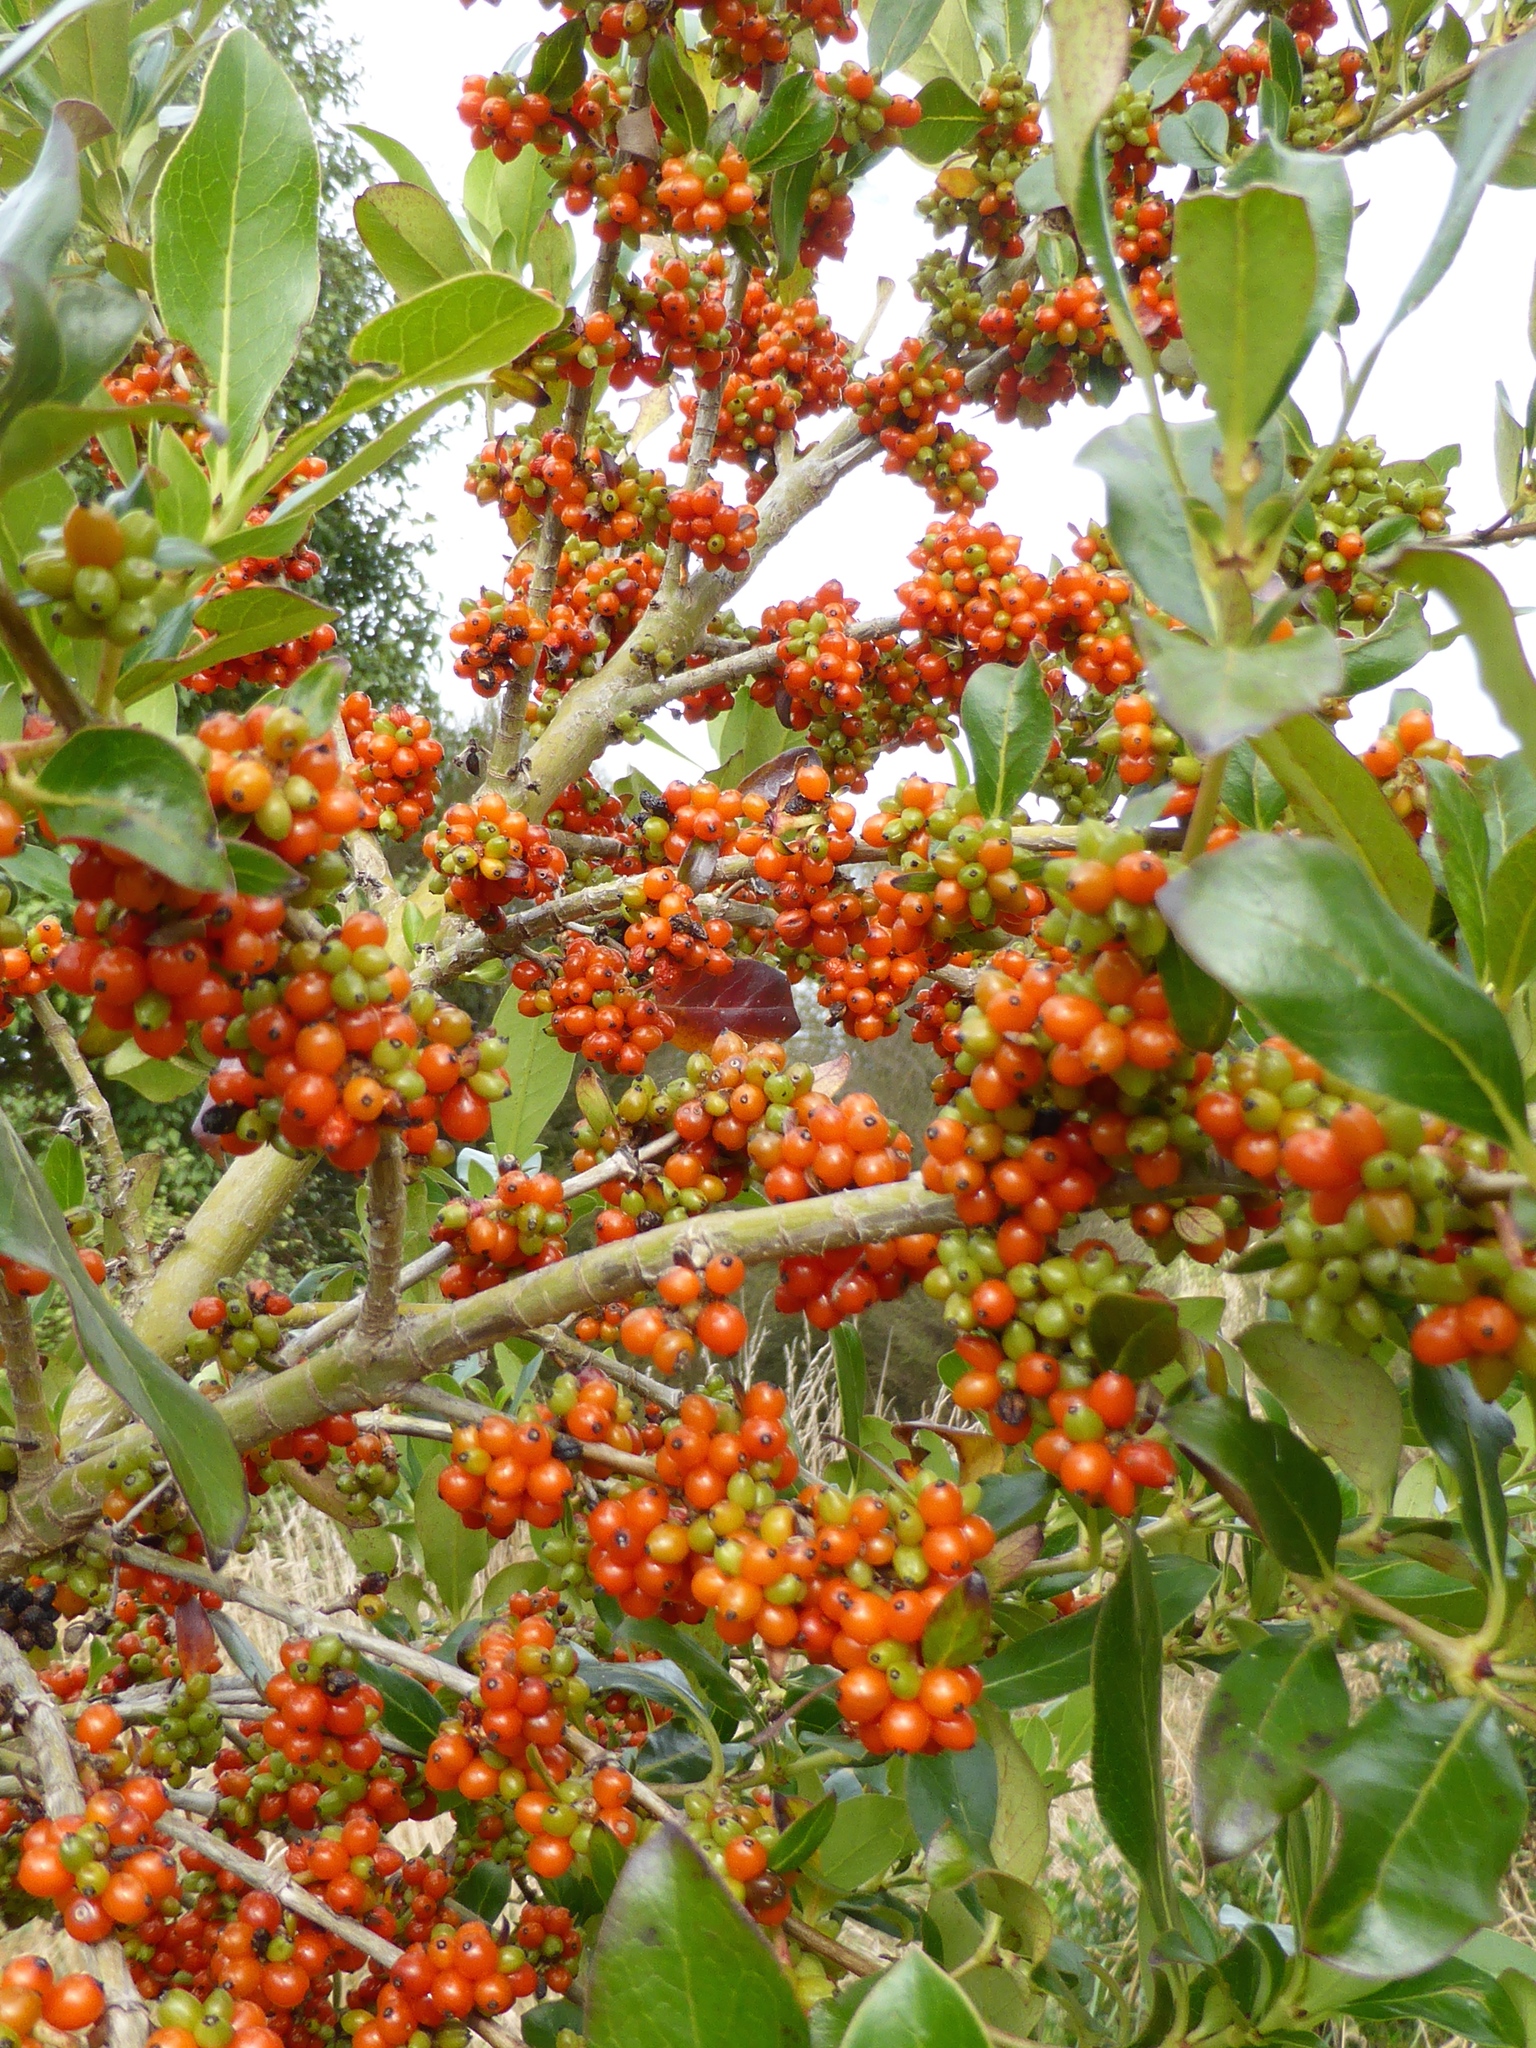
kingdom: Plantae
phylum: Tracheophyta
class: Magnoliopsida
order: Gentianales
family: Rubiaceae
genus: Coprosma
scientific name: Coprosma robusta
